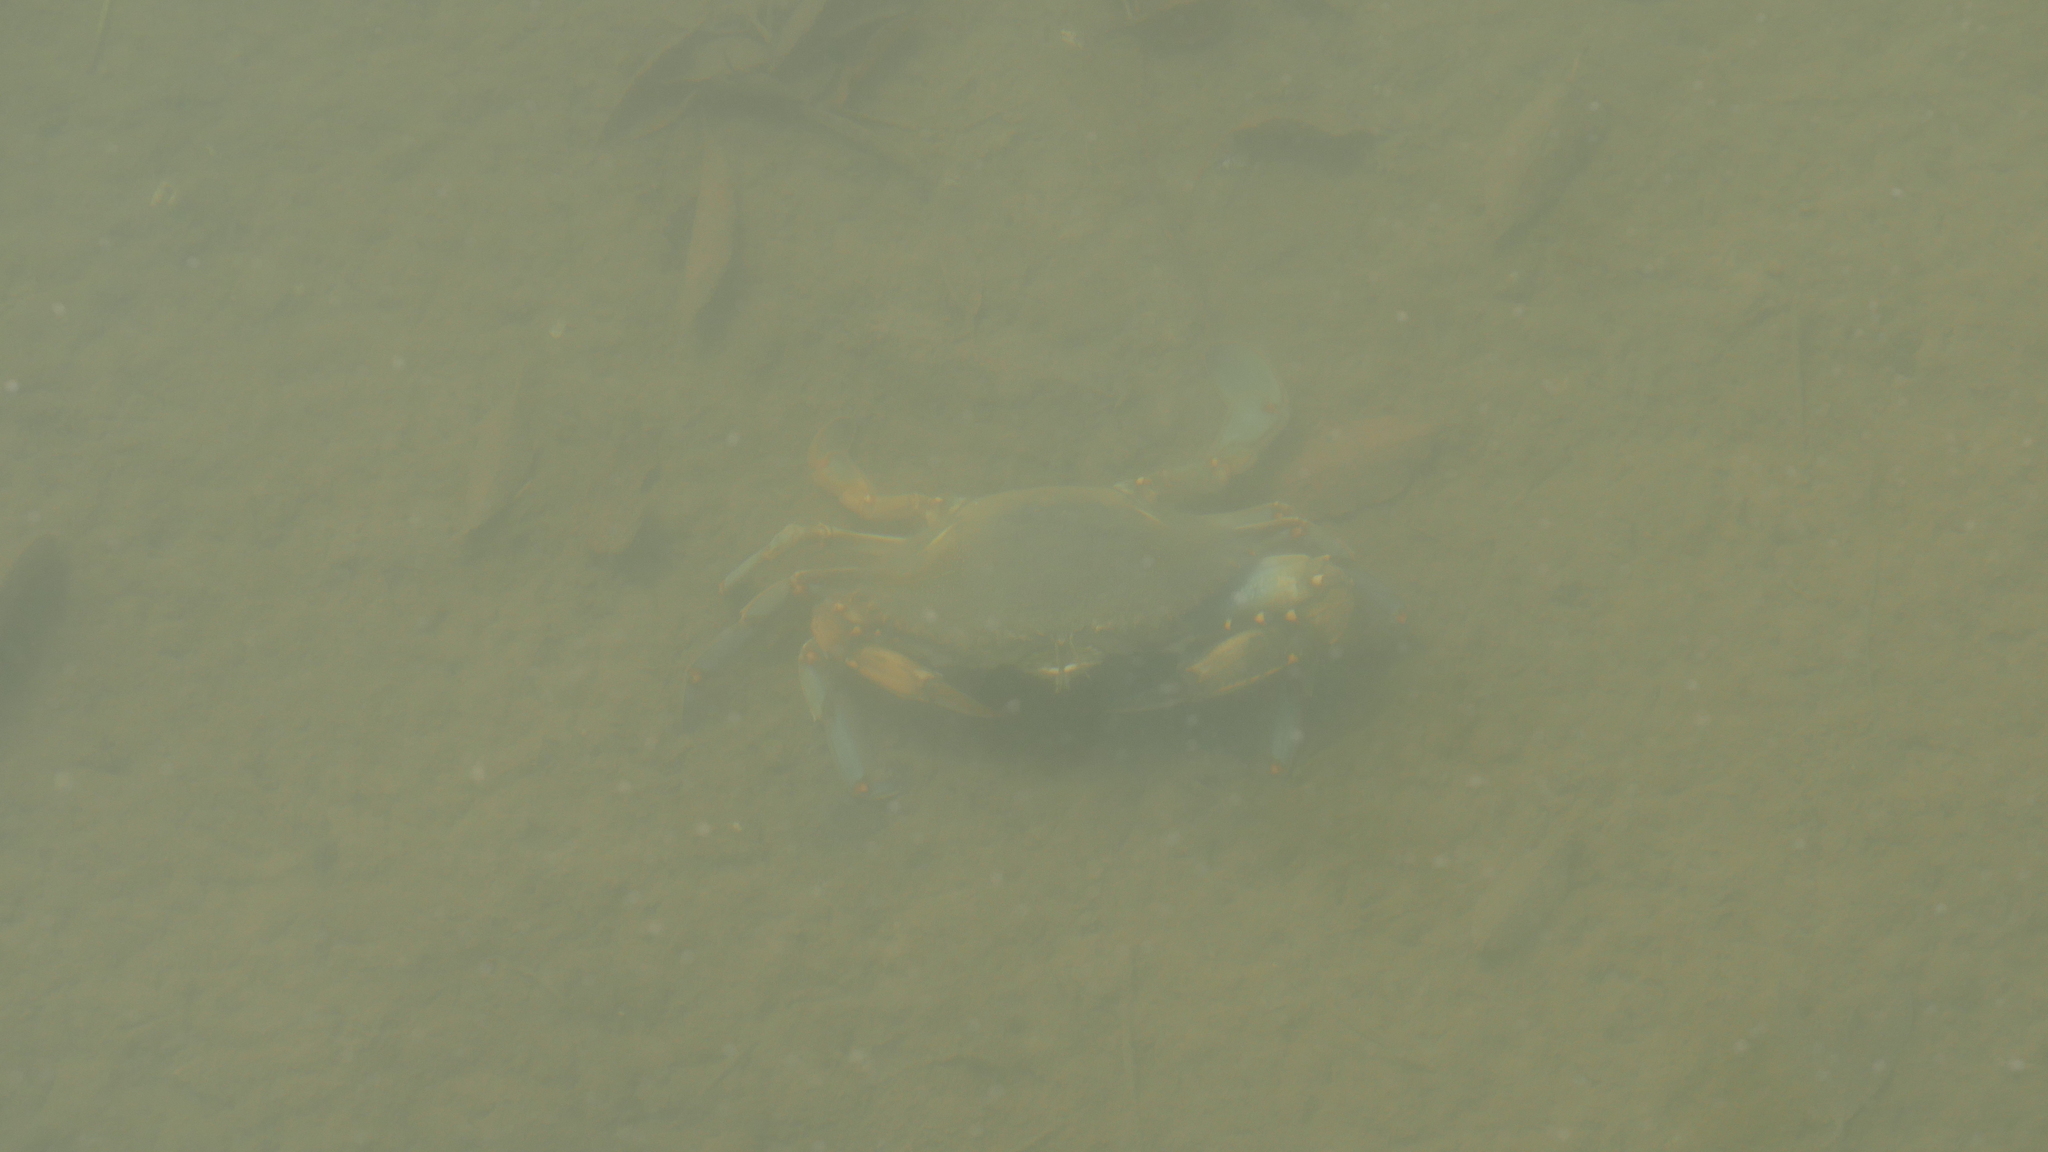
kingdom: Animalia
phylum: Arthropoda
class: Malacostraca
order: Decapoda
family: Portunidae
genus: Callinectes
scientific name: Callinectes sapidus
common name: Blue crab
